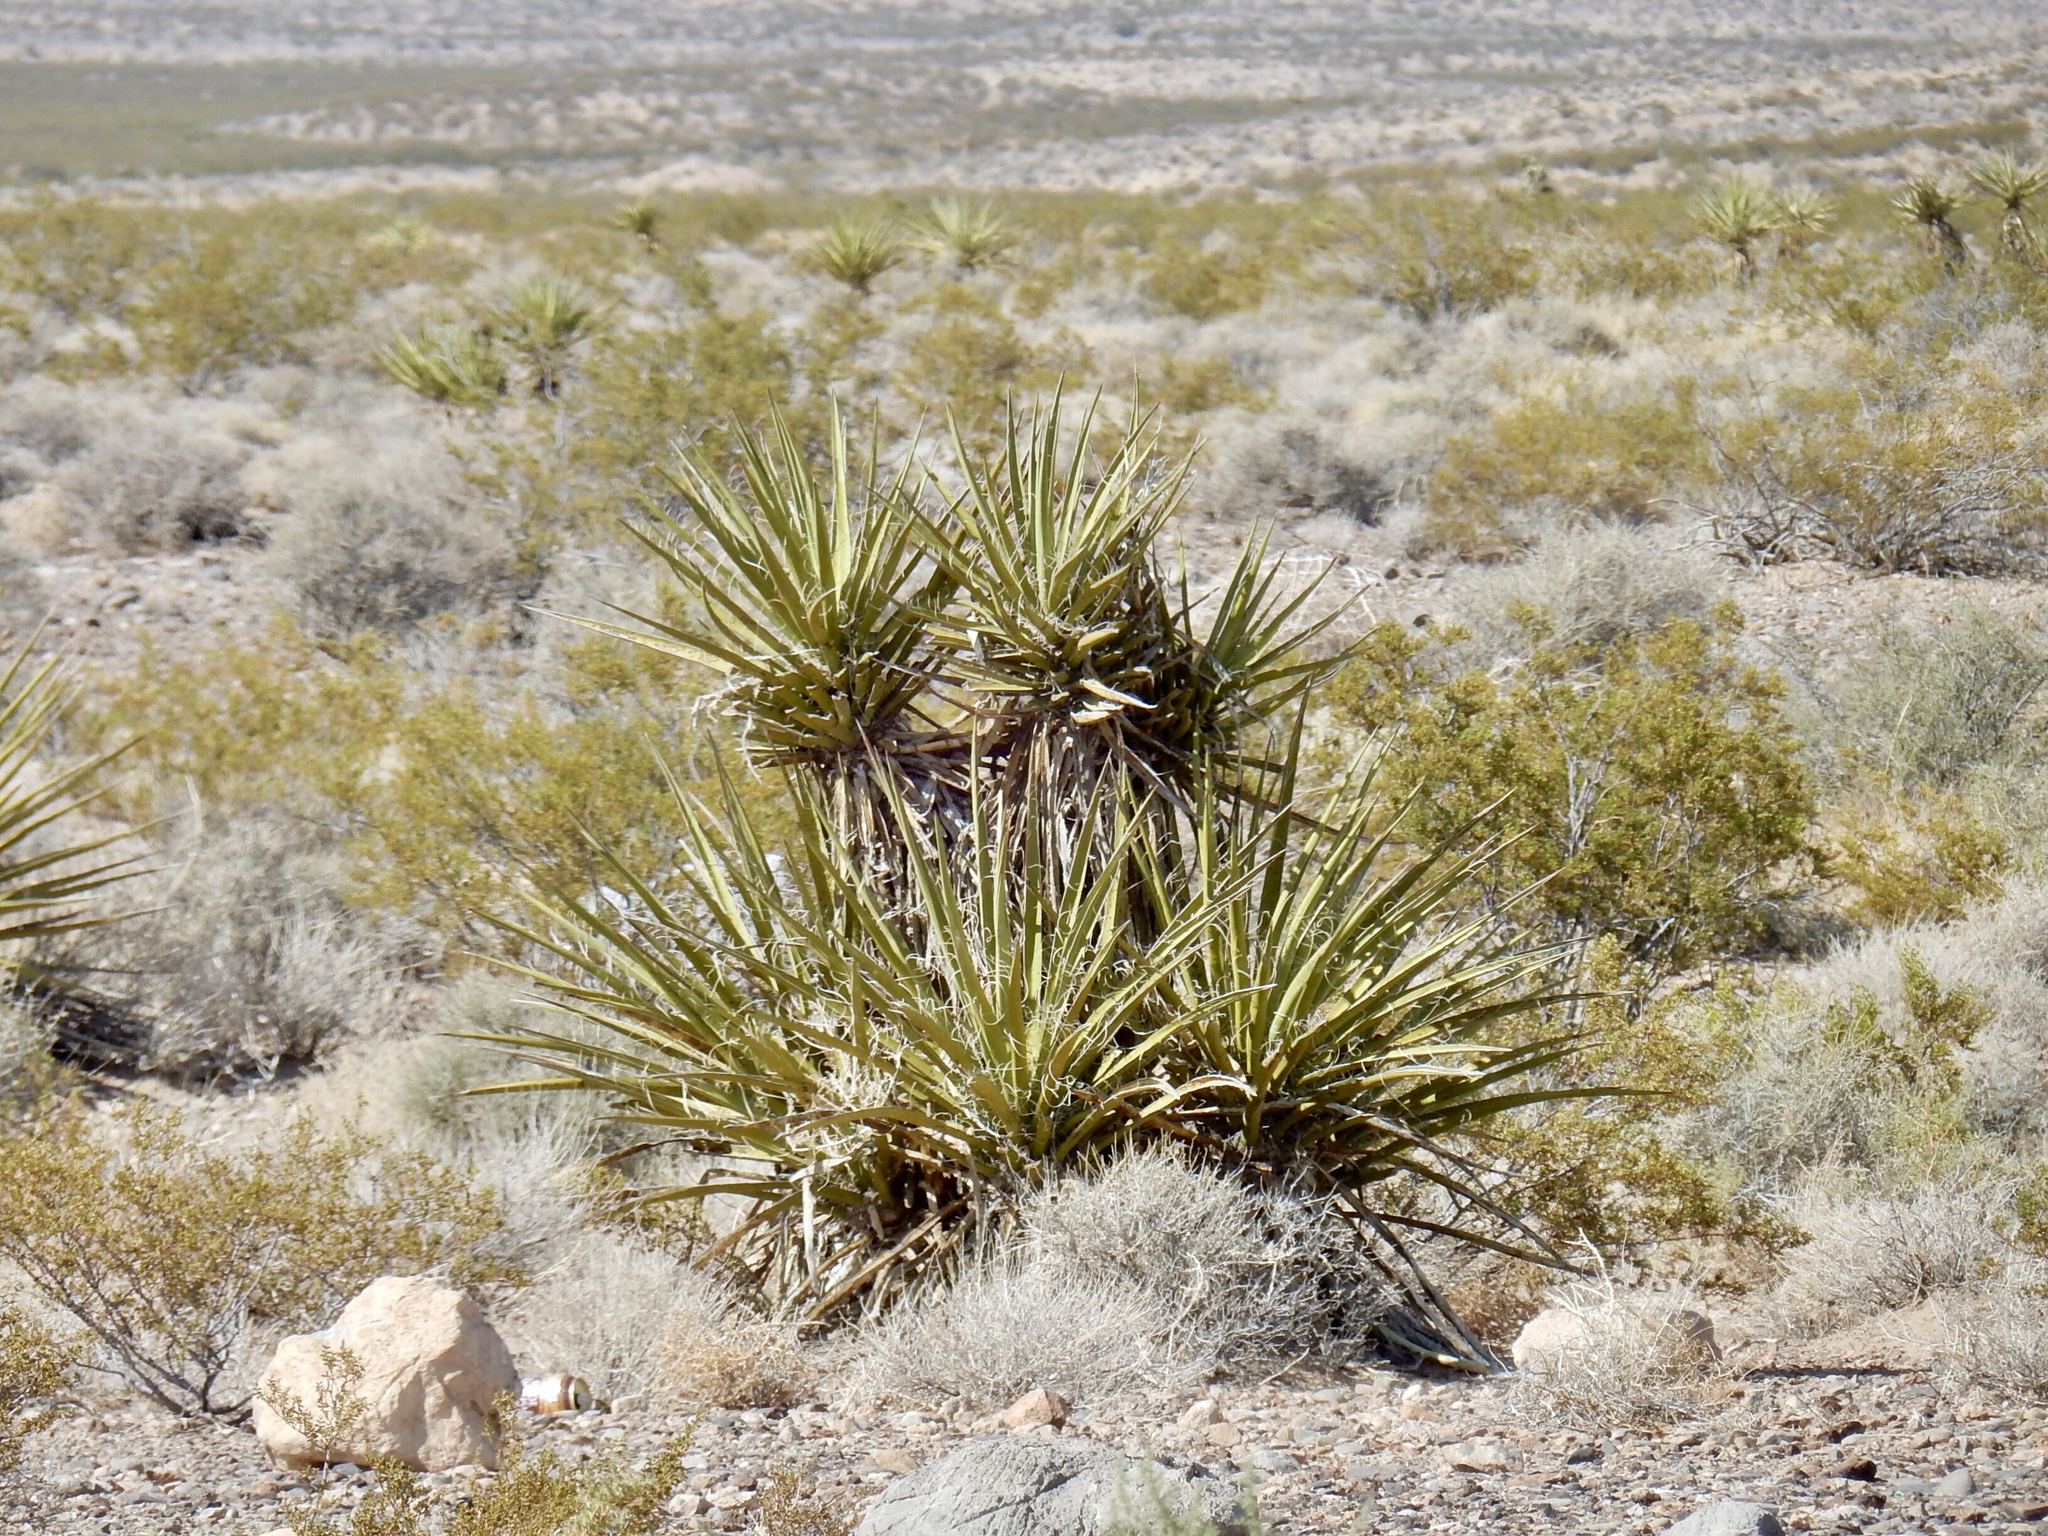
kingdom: Plantae
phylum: Tracheophyta
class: Liliopsida
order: Asparagales
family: Asparagaceae
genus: Yucca
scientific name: Yucca schidigera
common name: Mojave yucca
